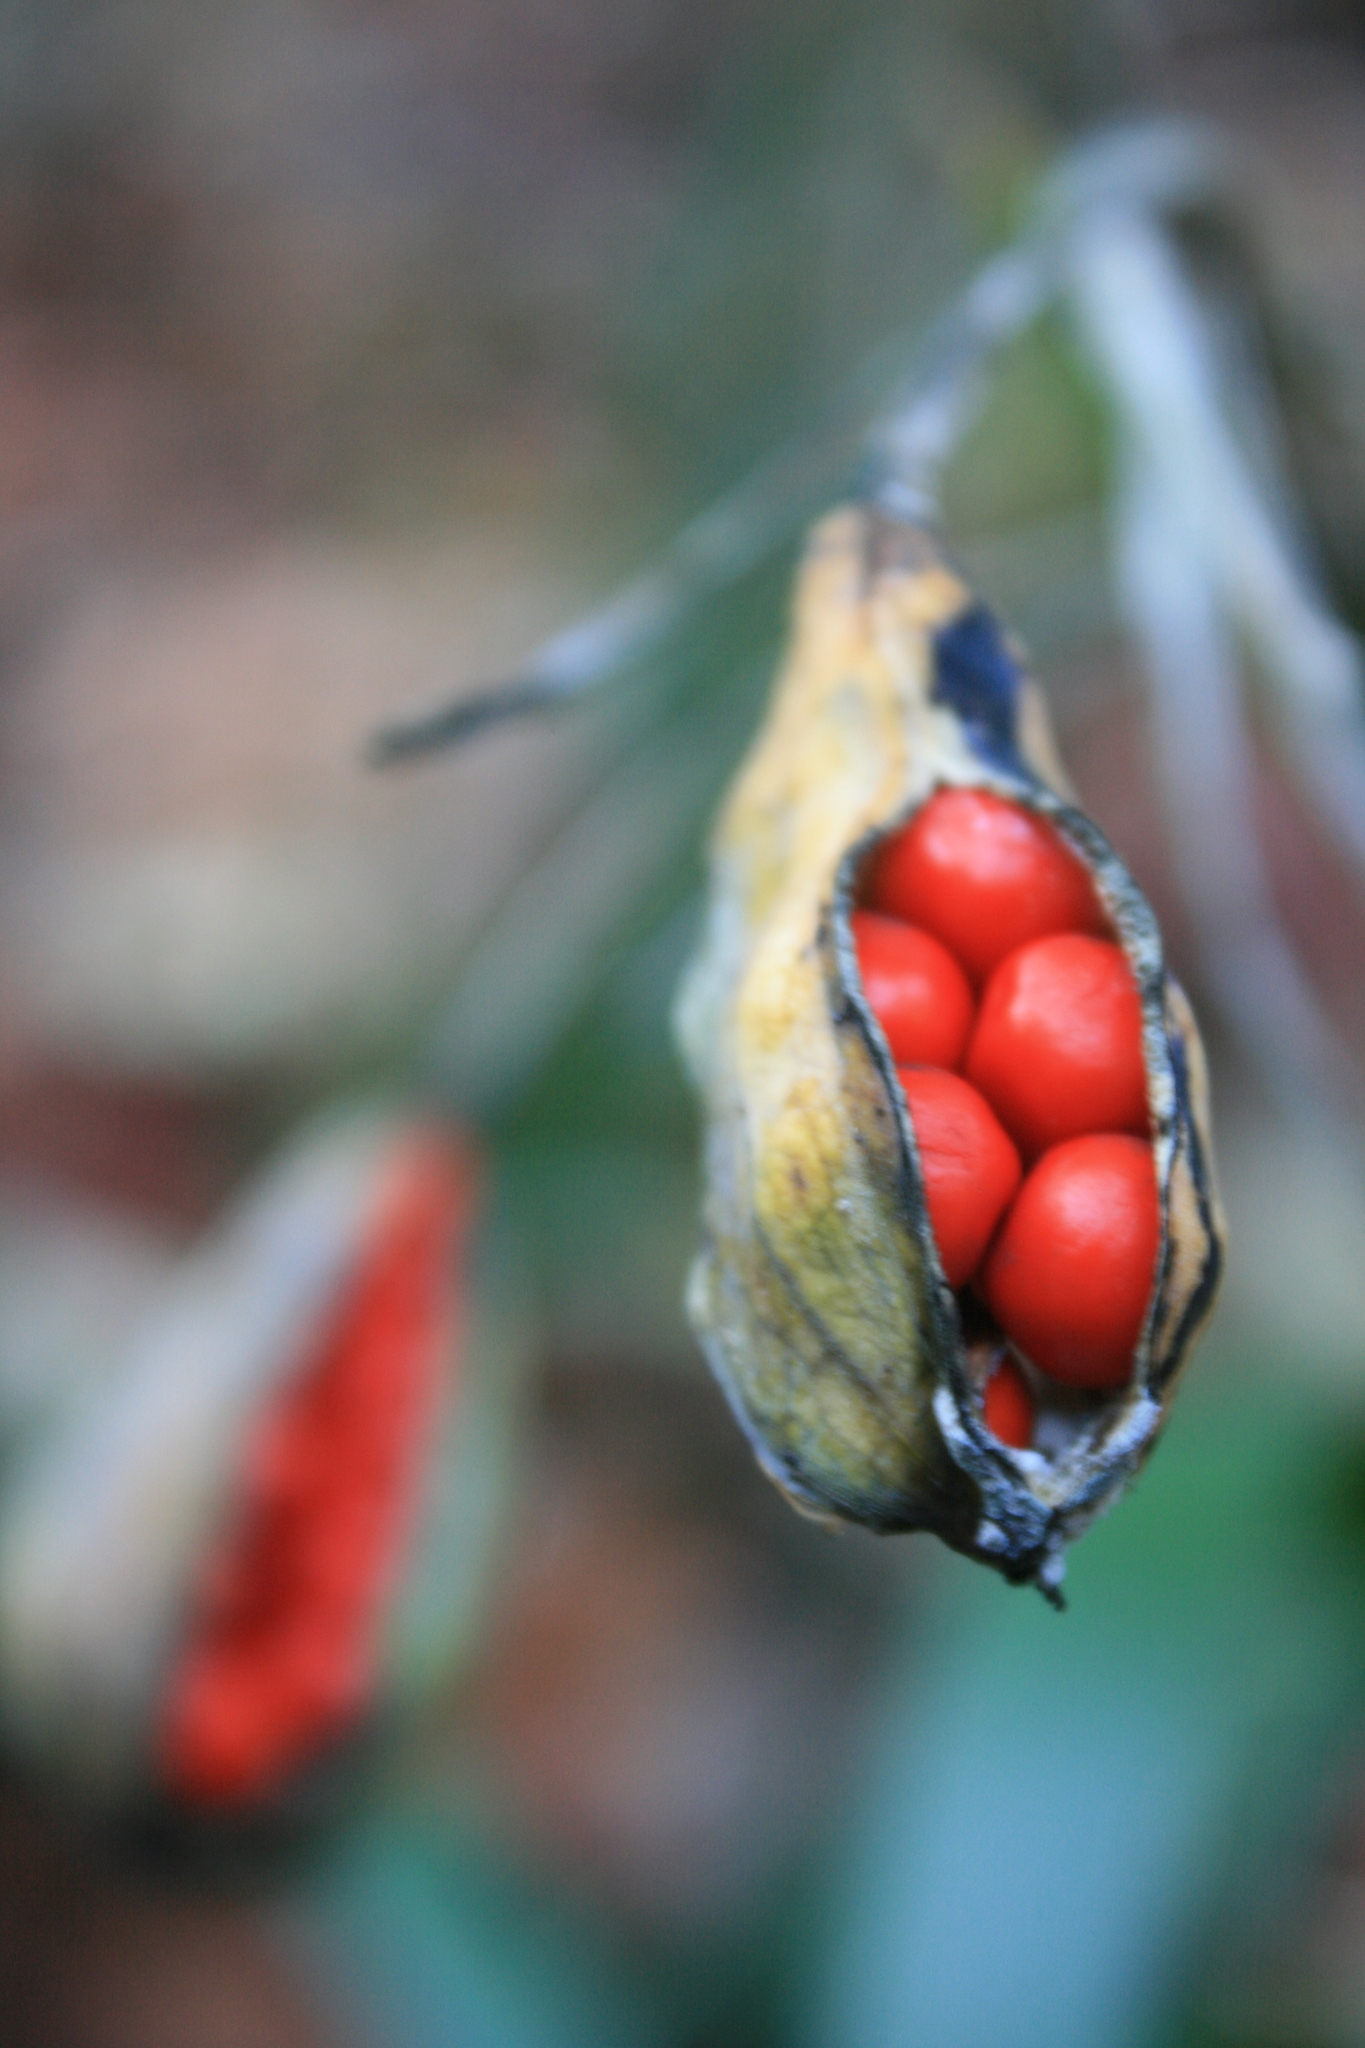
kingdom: Plantae
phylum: Tracheophyta
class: Liliopsida
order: Asparagales
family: Iridaceae
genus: Iris
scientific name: Iris foetidissima
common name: Stinking iris
